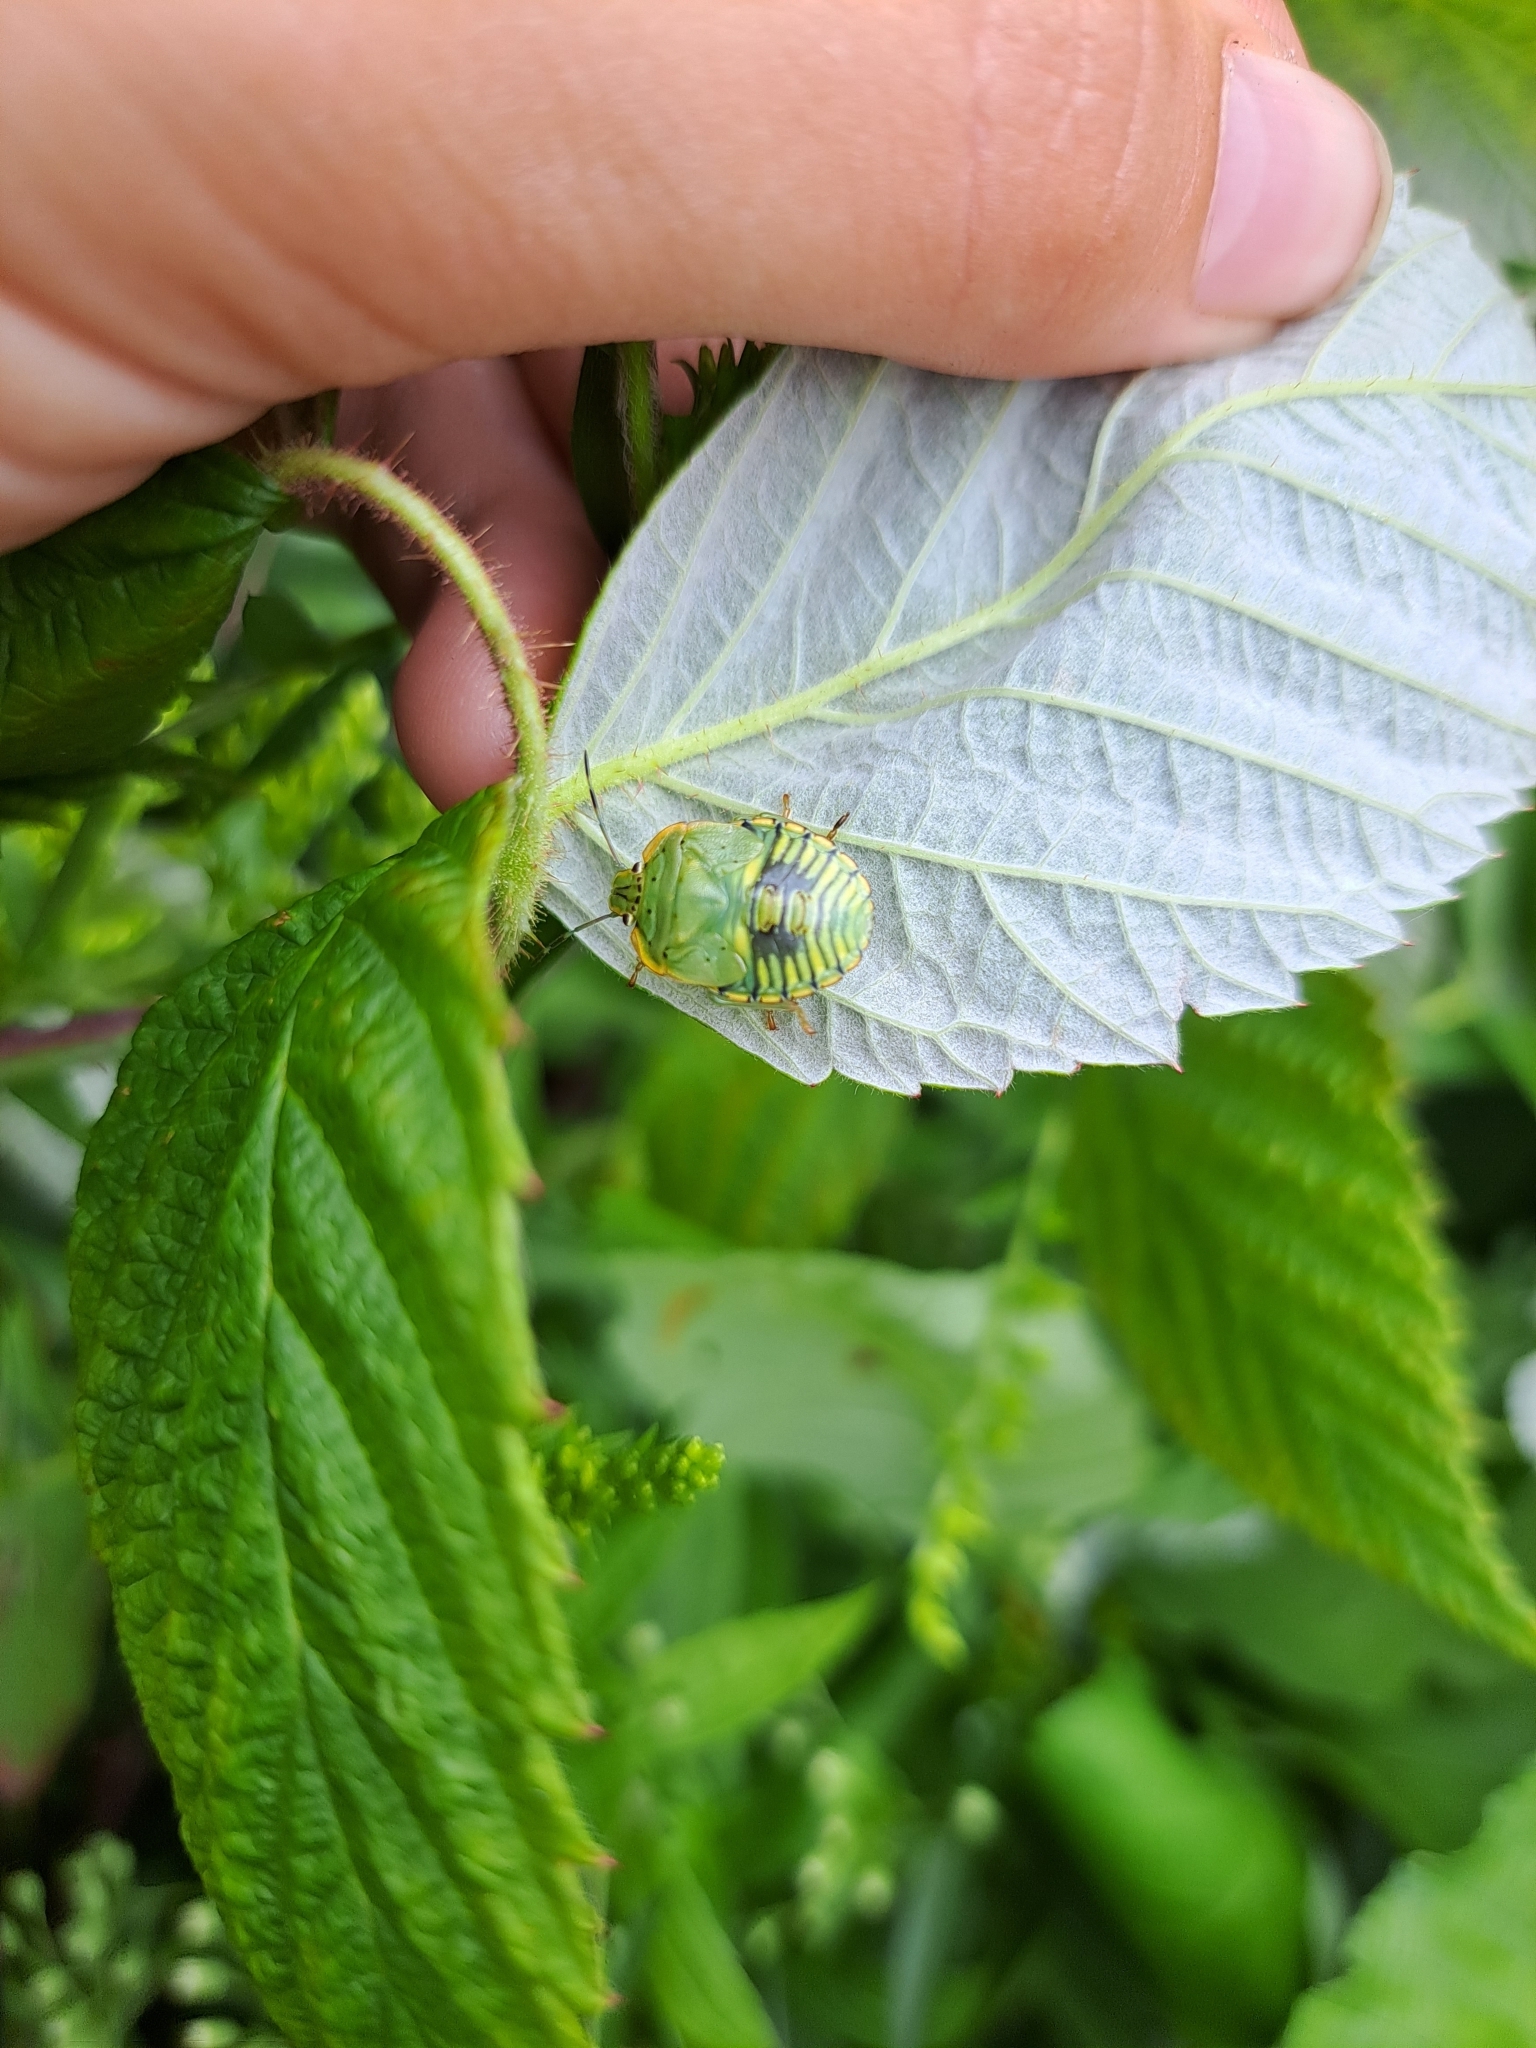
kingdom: Animalia
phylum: Arthropoda
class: Insecta
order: Hemiptera
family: Pentatomidae
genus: Chinavia
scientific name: Chinavia hilaris
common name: Green stink bug
